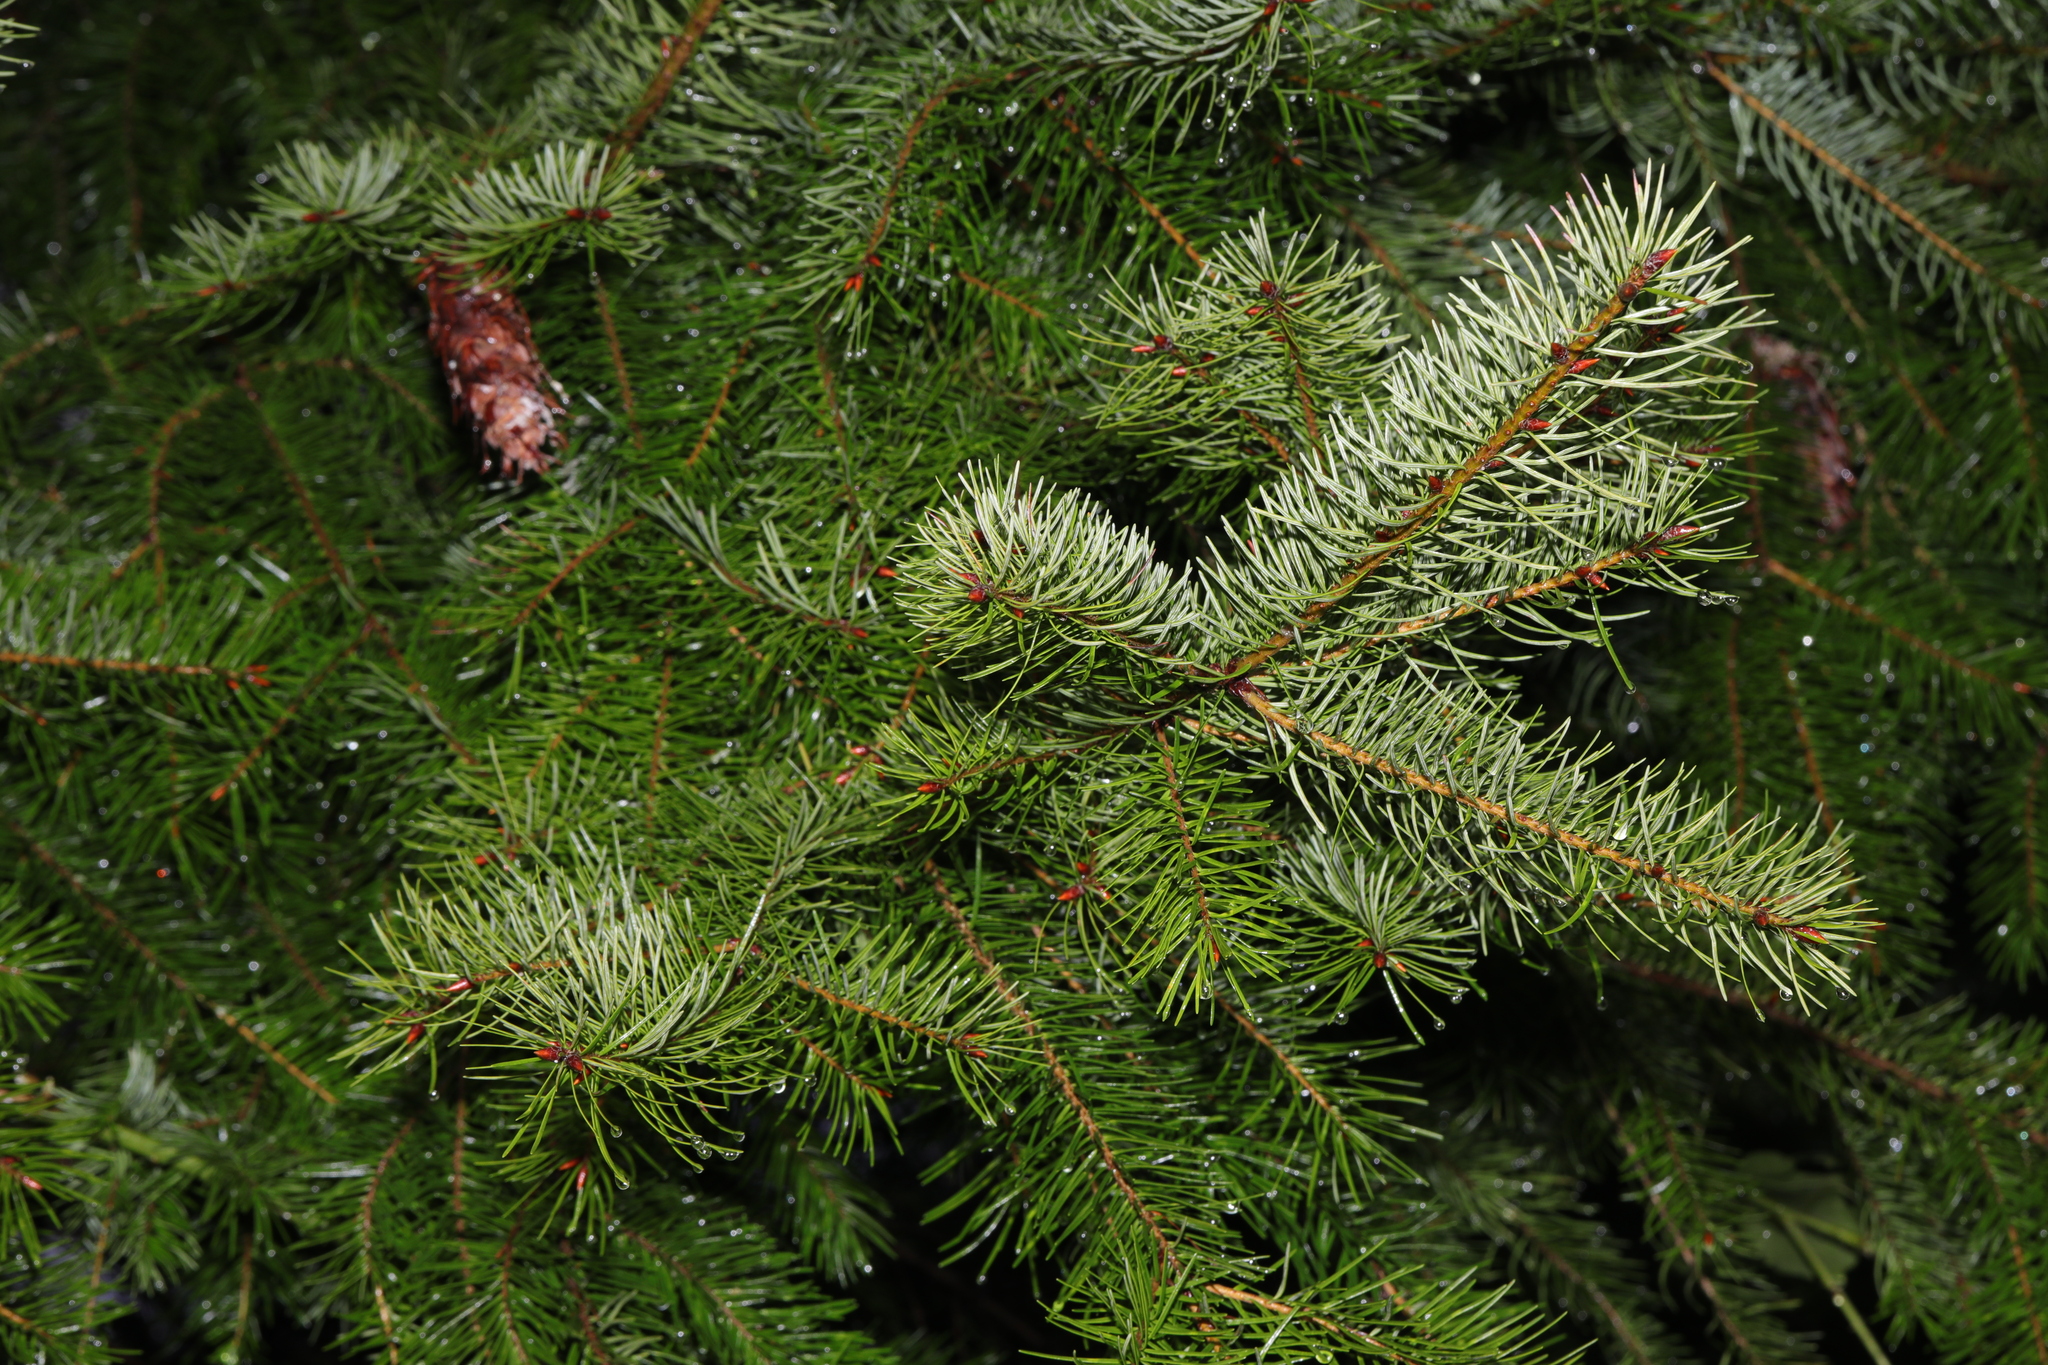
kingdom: Plantae
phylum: Tracheophyta
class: Pinopsida
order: Pinales
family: Pinaceae
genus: Pseudotsuga
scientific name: Pseudotsuga menziesii
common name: Douglas fir
